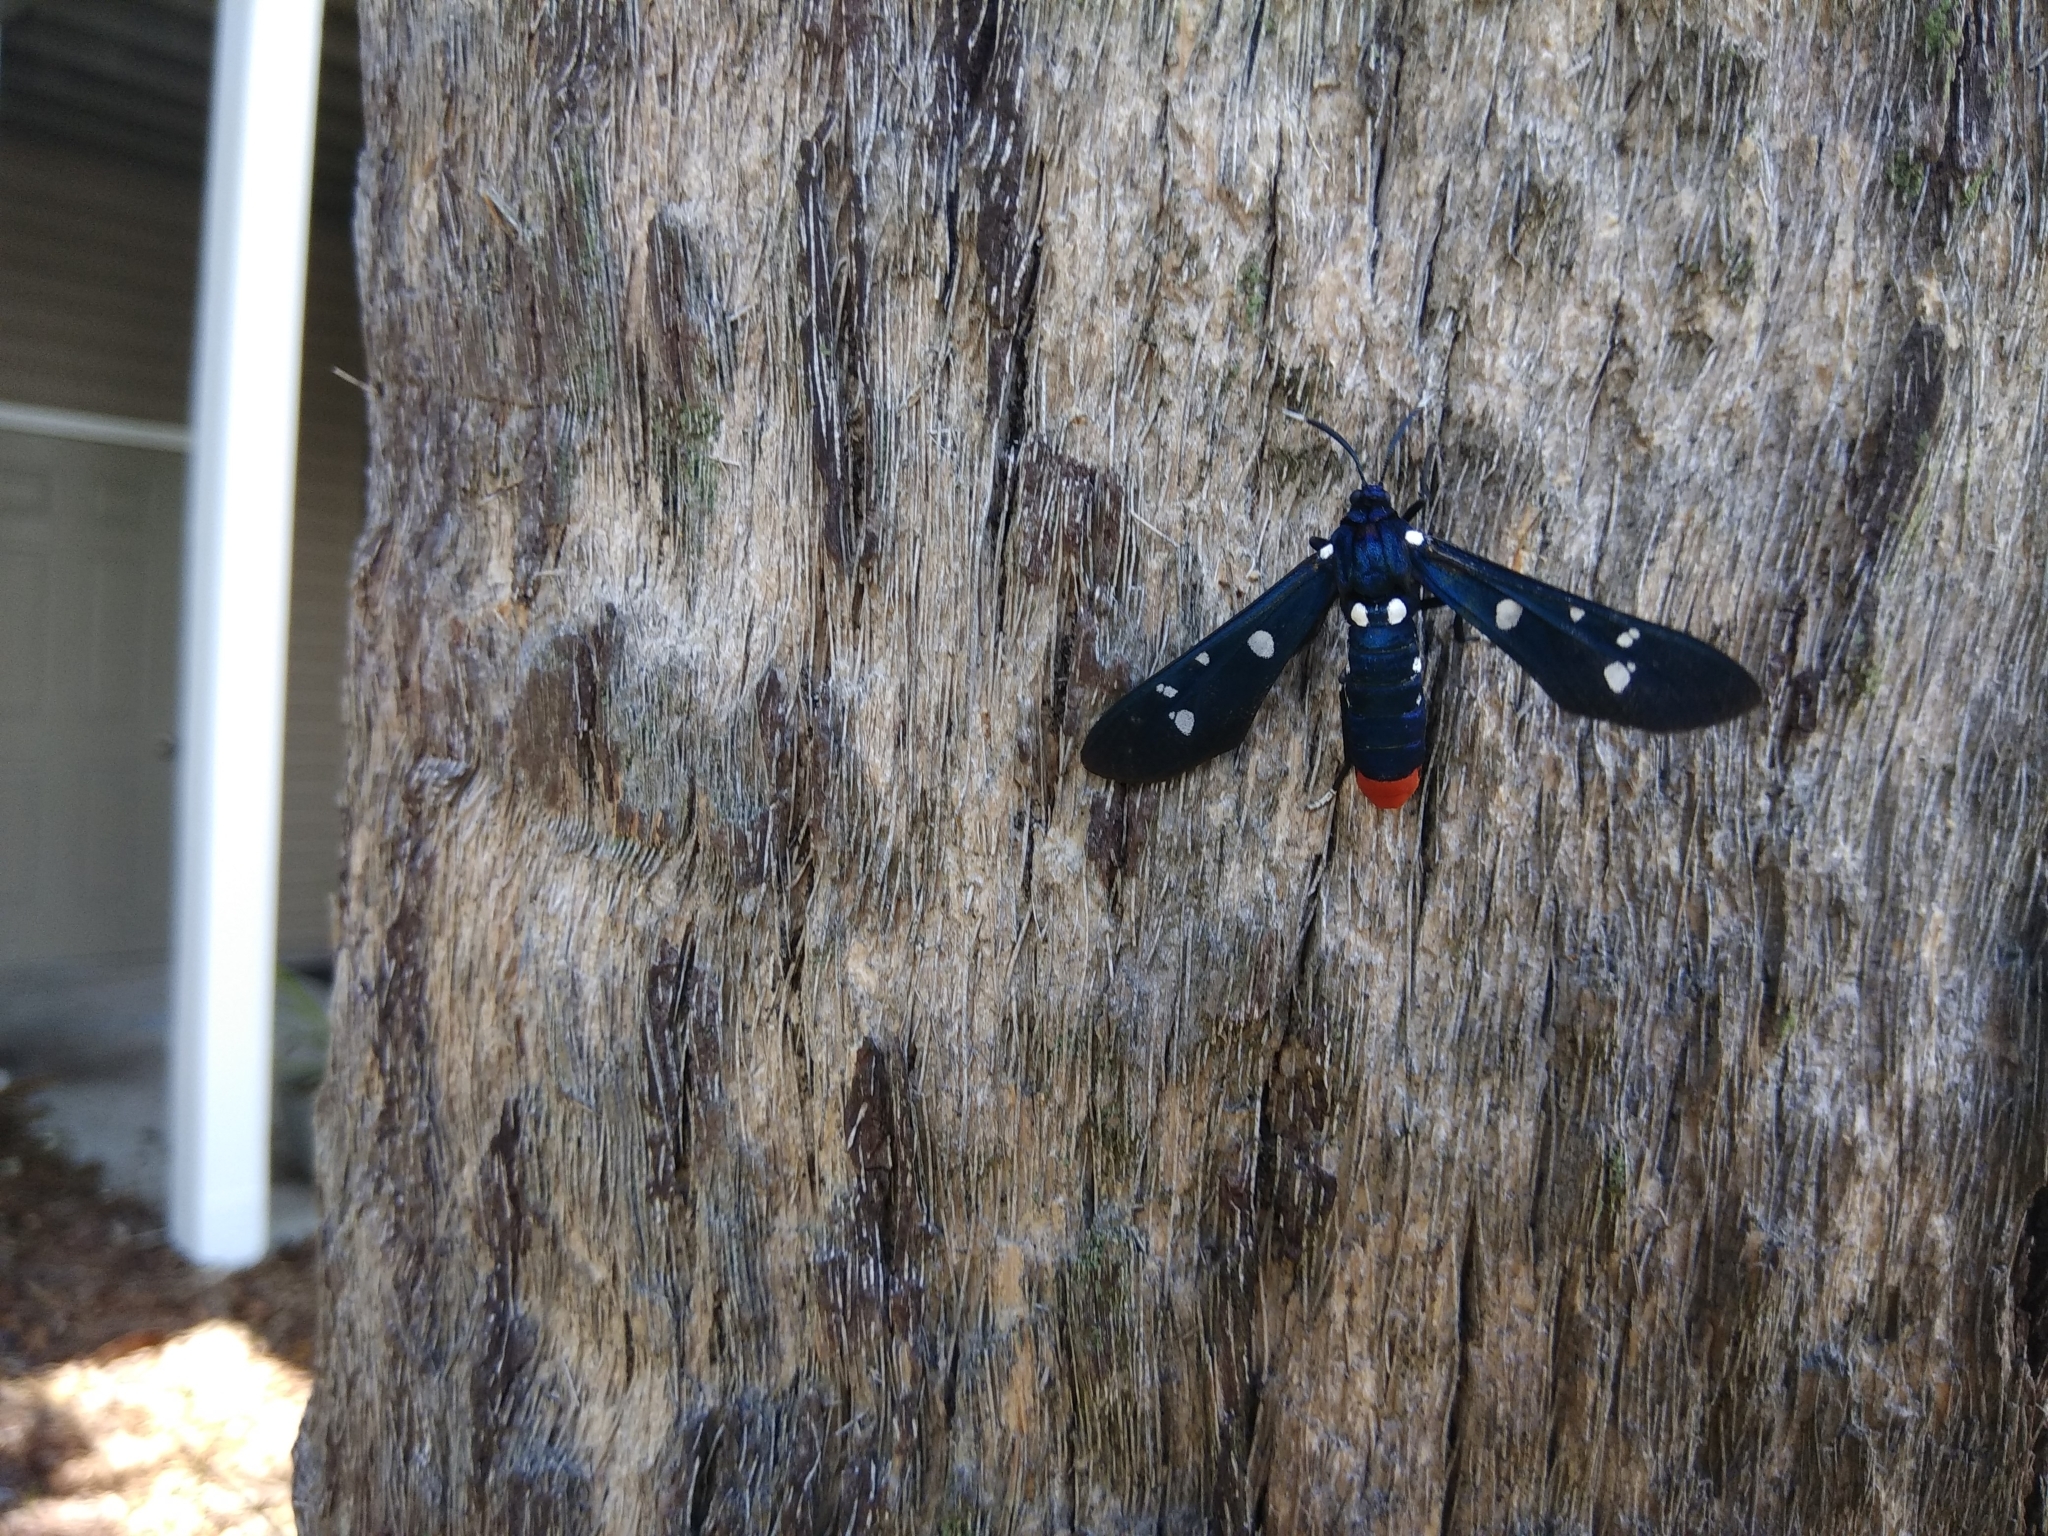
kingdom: Animalia
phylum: Arthropoda
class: Insecta
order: Lepidoptera
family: Erebidae
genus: Syntomeida
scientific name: Syntomeida epilais
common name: Polka-dot wasp moth
